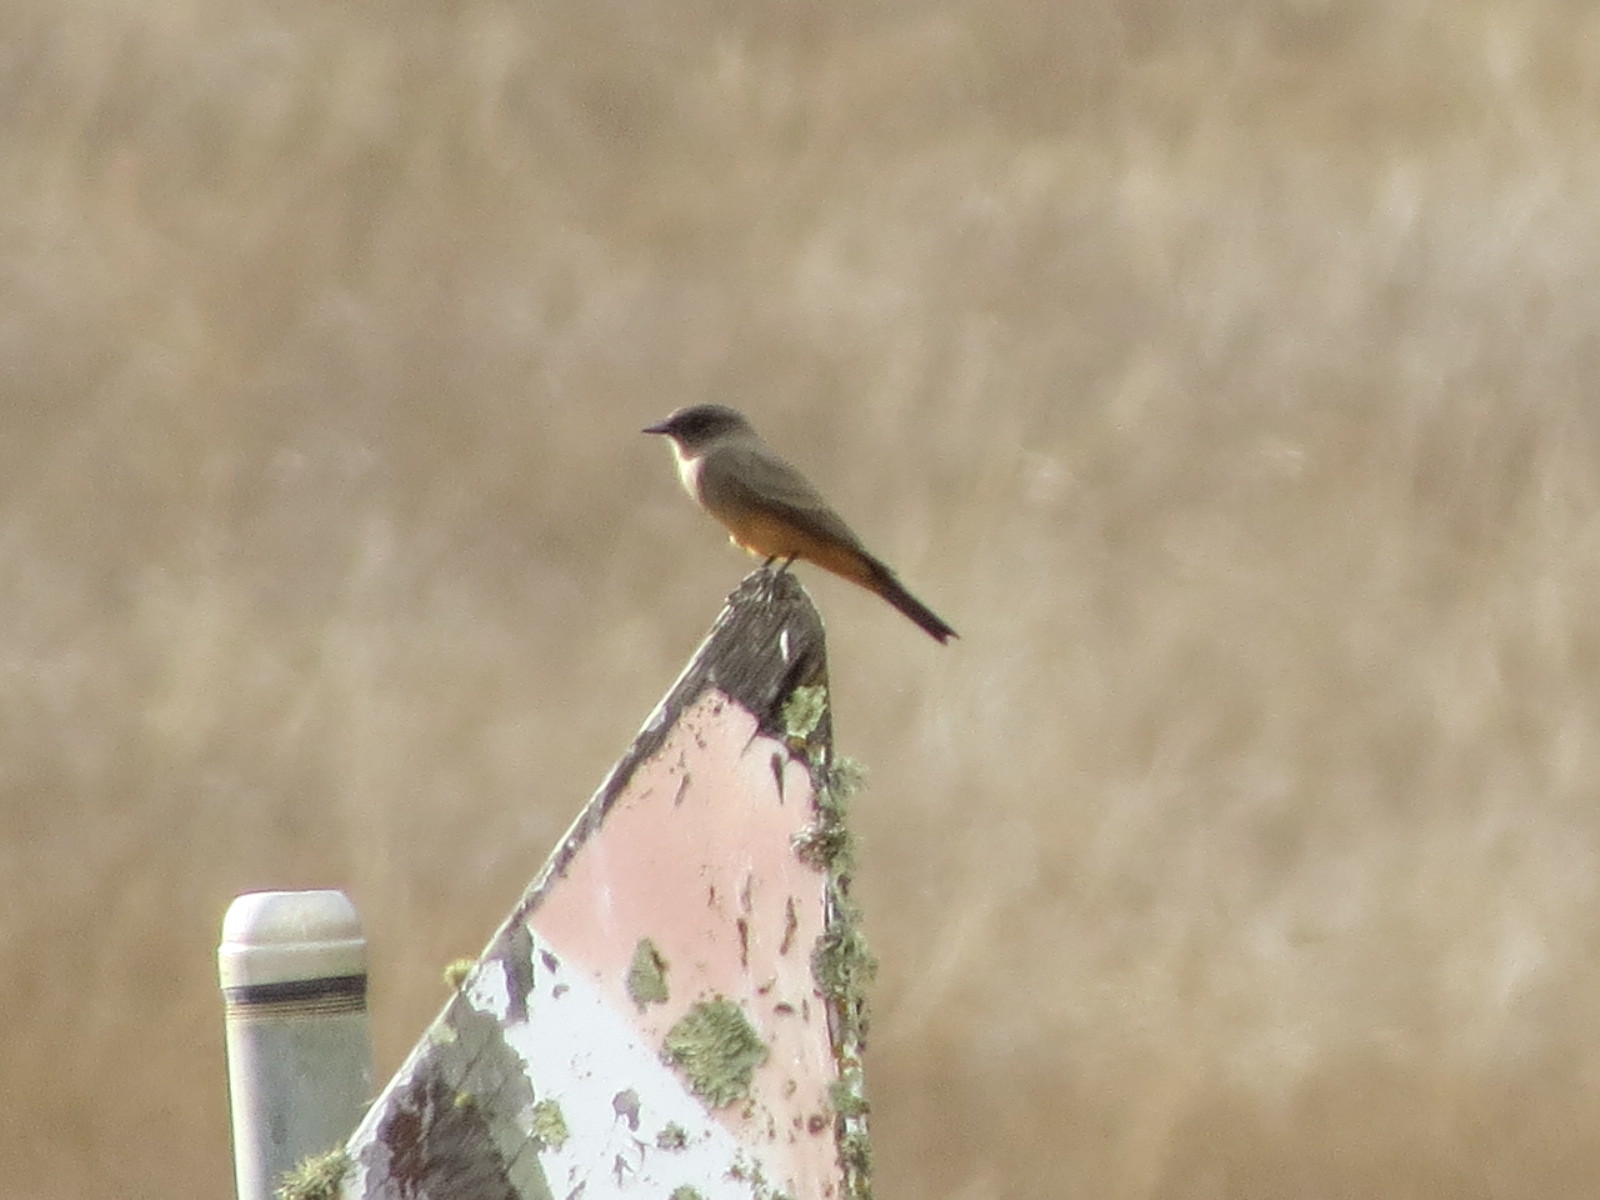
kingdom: Animalia
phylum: Chordata
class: Aves
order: Passeriformes
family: Tyrannidae
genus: Sayornis
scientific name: Sayornis saya
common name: Say's phoebe
